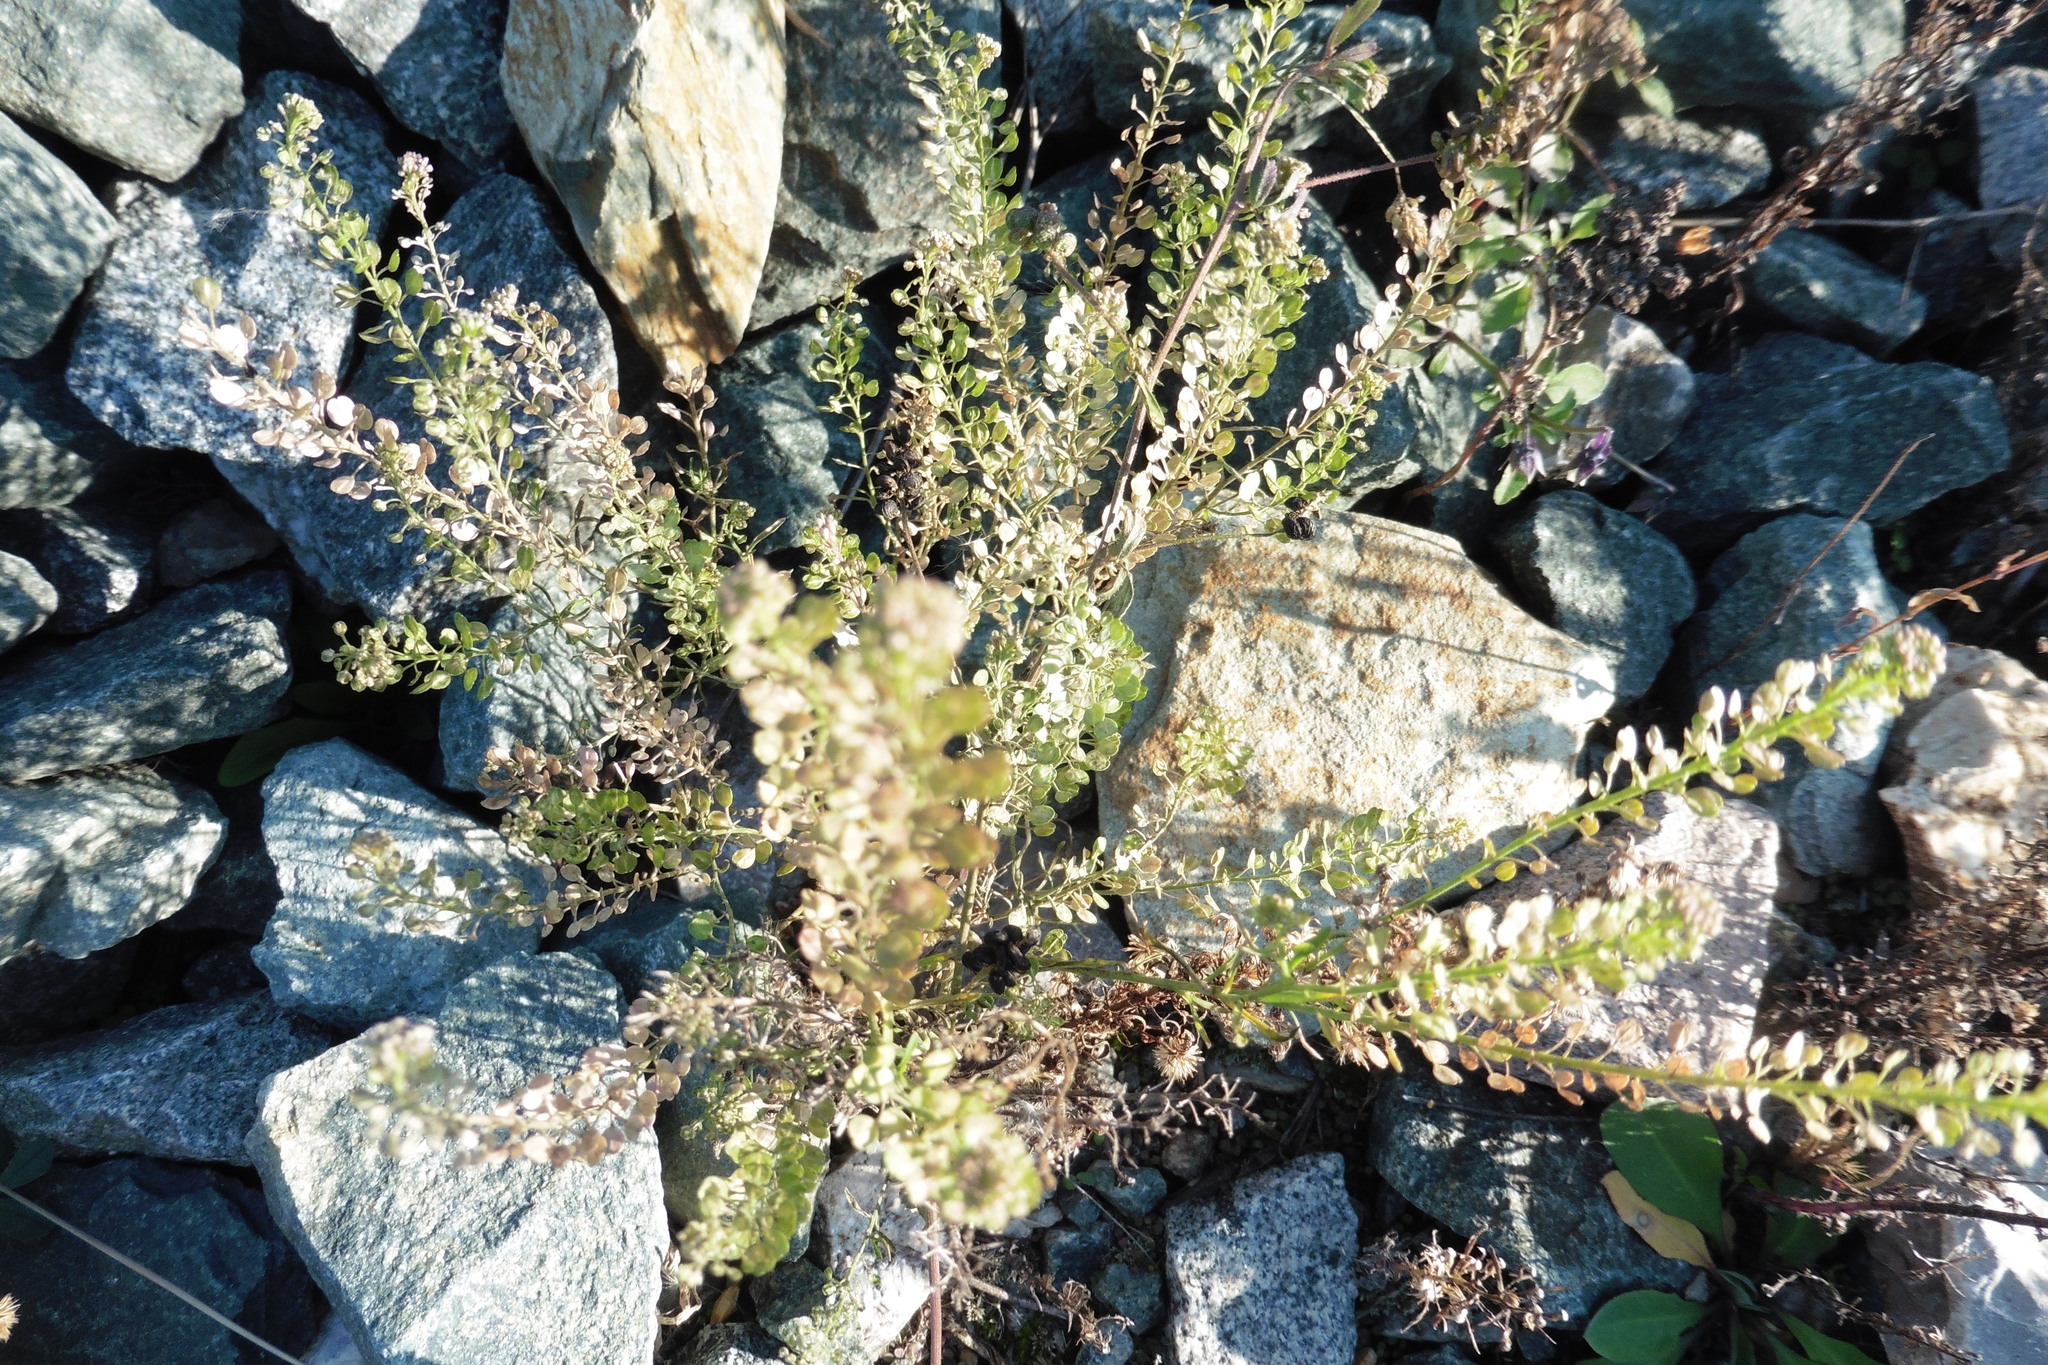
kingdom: Plantae
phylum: Tracheophyta
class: Magnoliopsida
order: Brassicales
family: Brassicaceae
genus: Lepidium
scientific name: Lepidium densiflorum
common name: Miner's pepperwort
